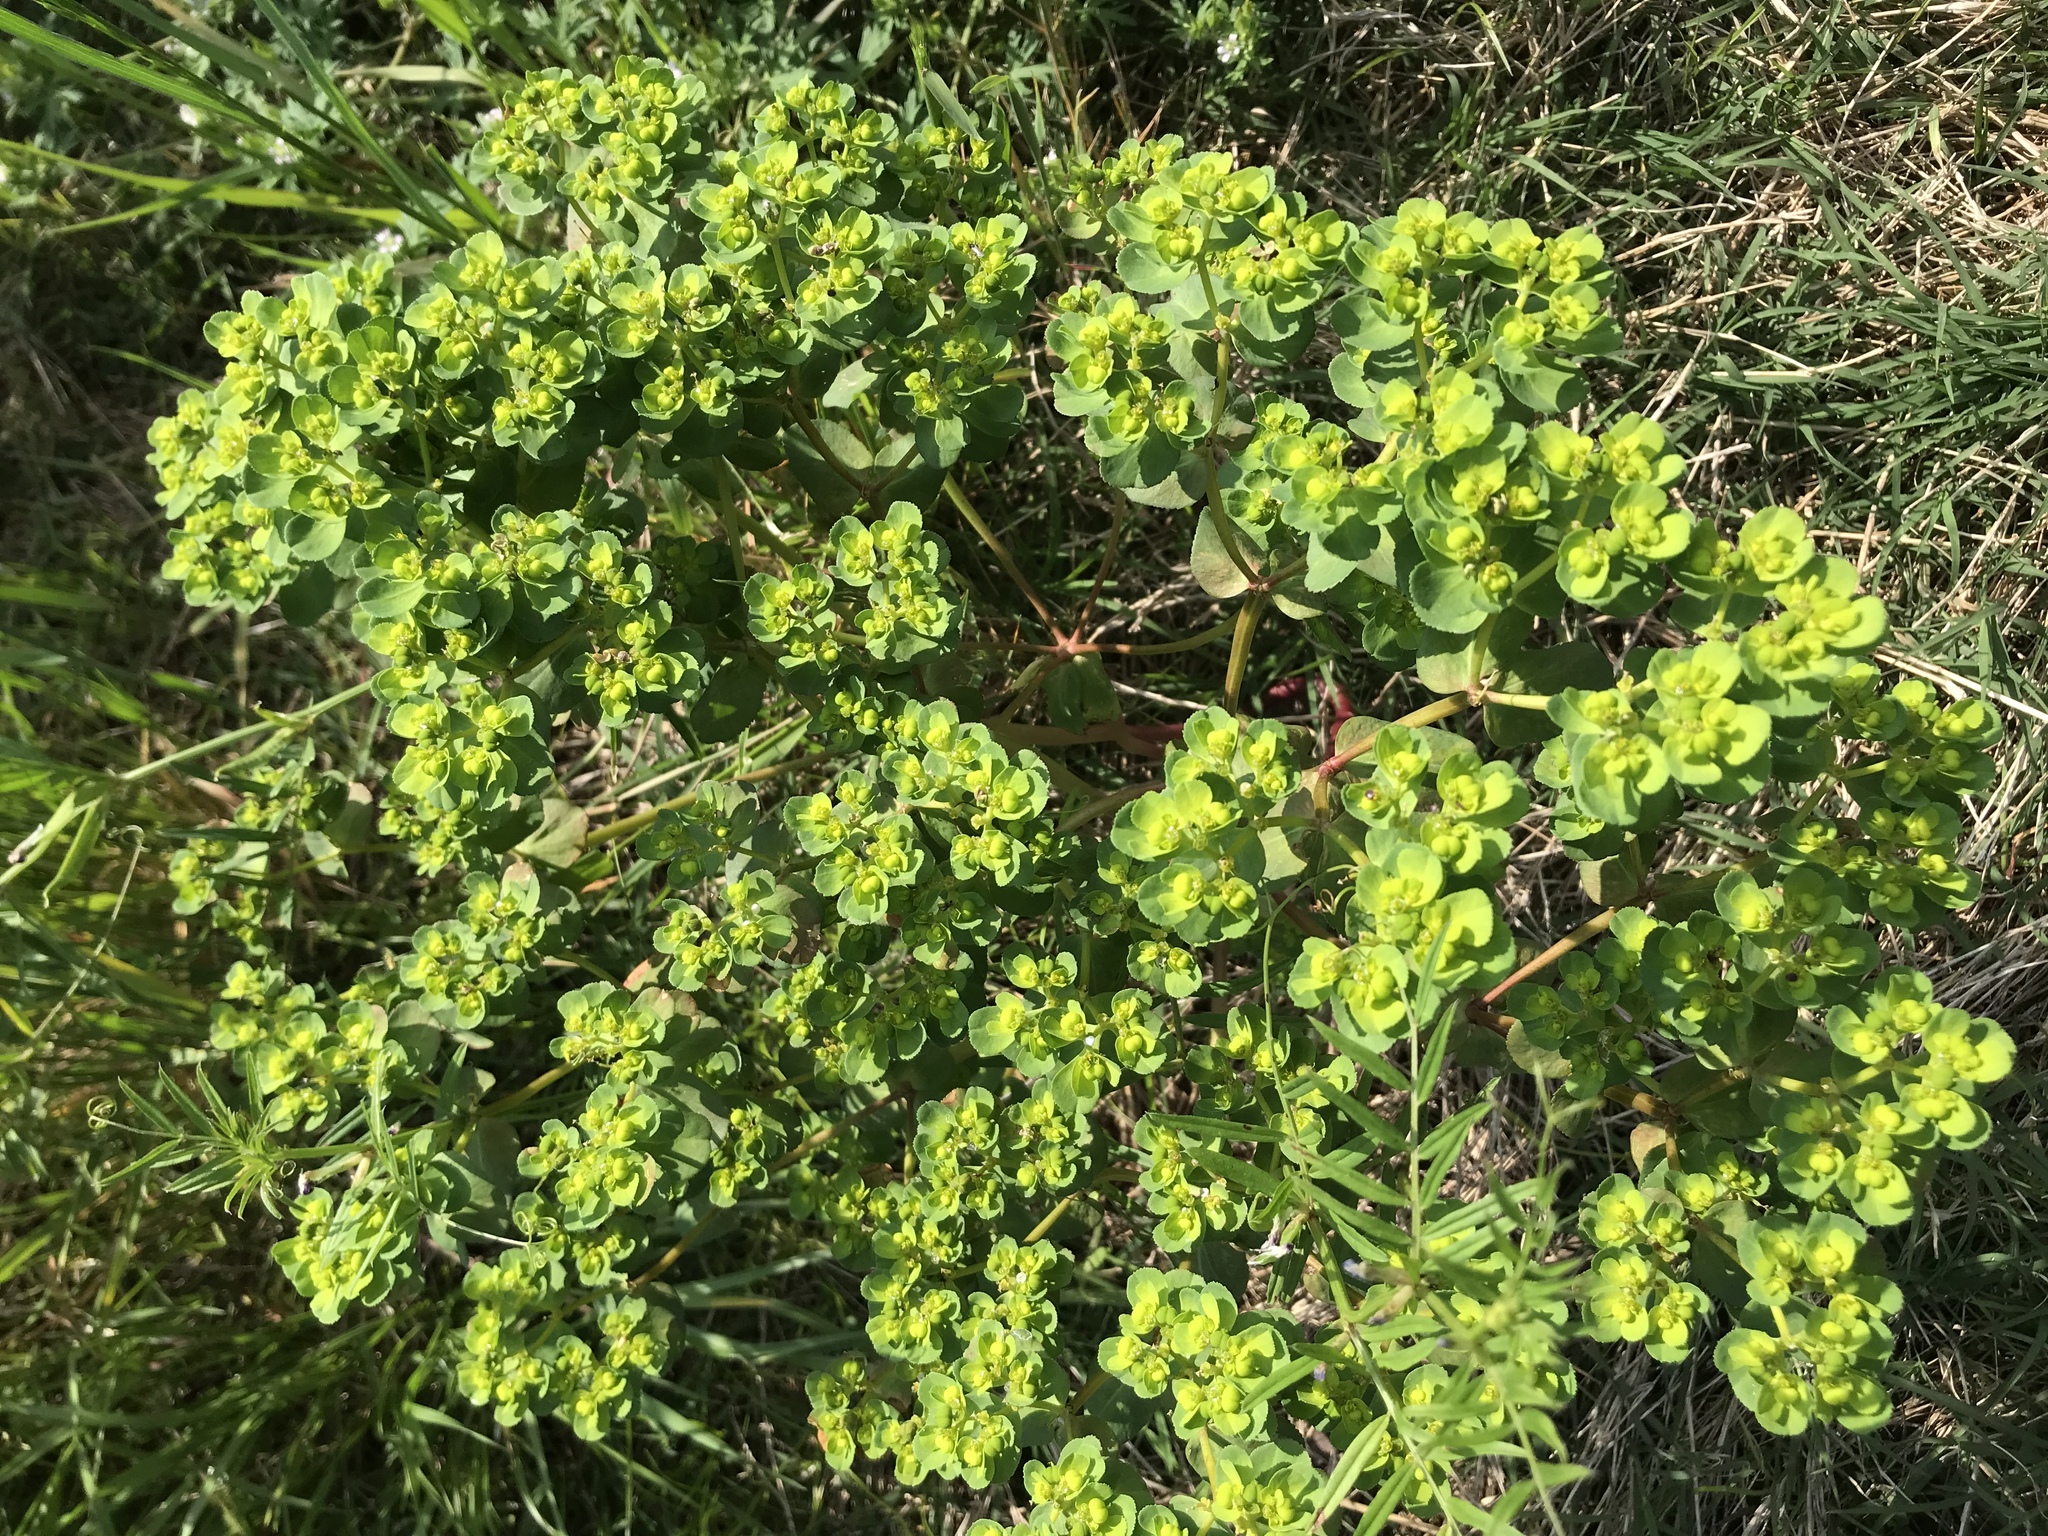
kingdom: Plantae
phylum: Tracheophyta
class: Magnoliopsida
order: Malpighiales
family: Euphorbiaceae
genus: Euphorbia
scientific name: Euphorbia helioscopia
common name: Sun spurge
